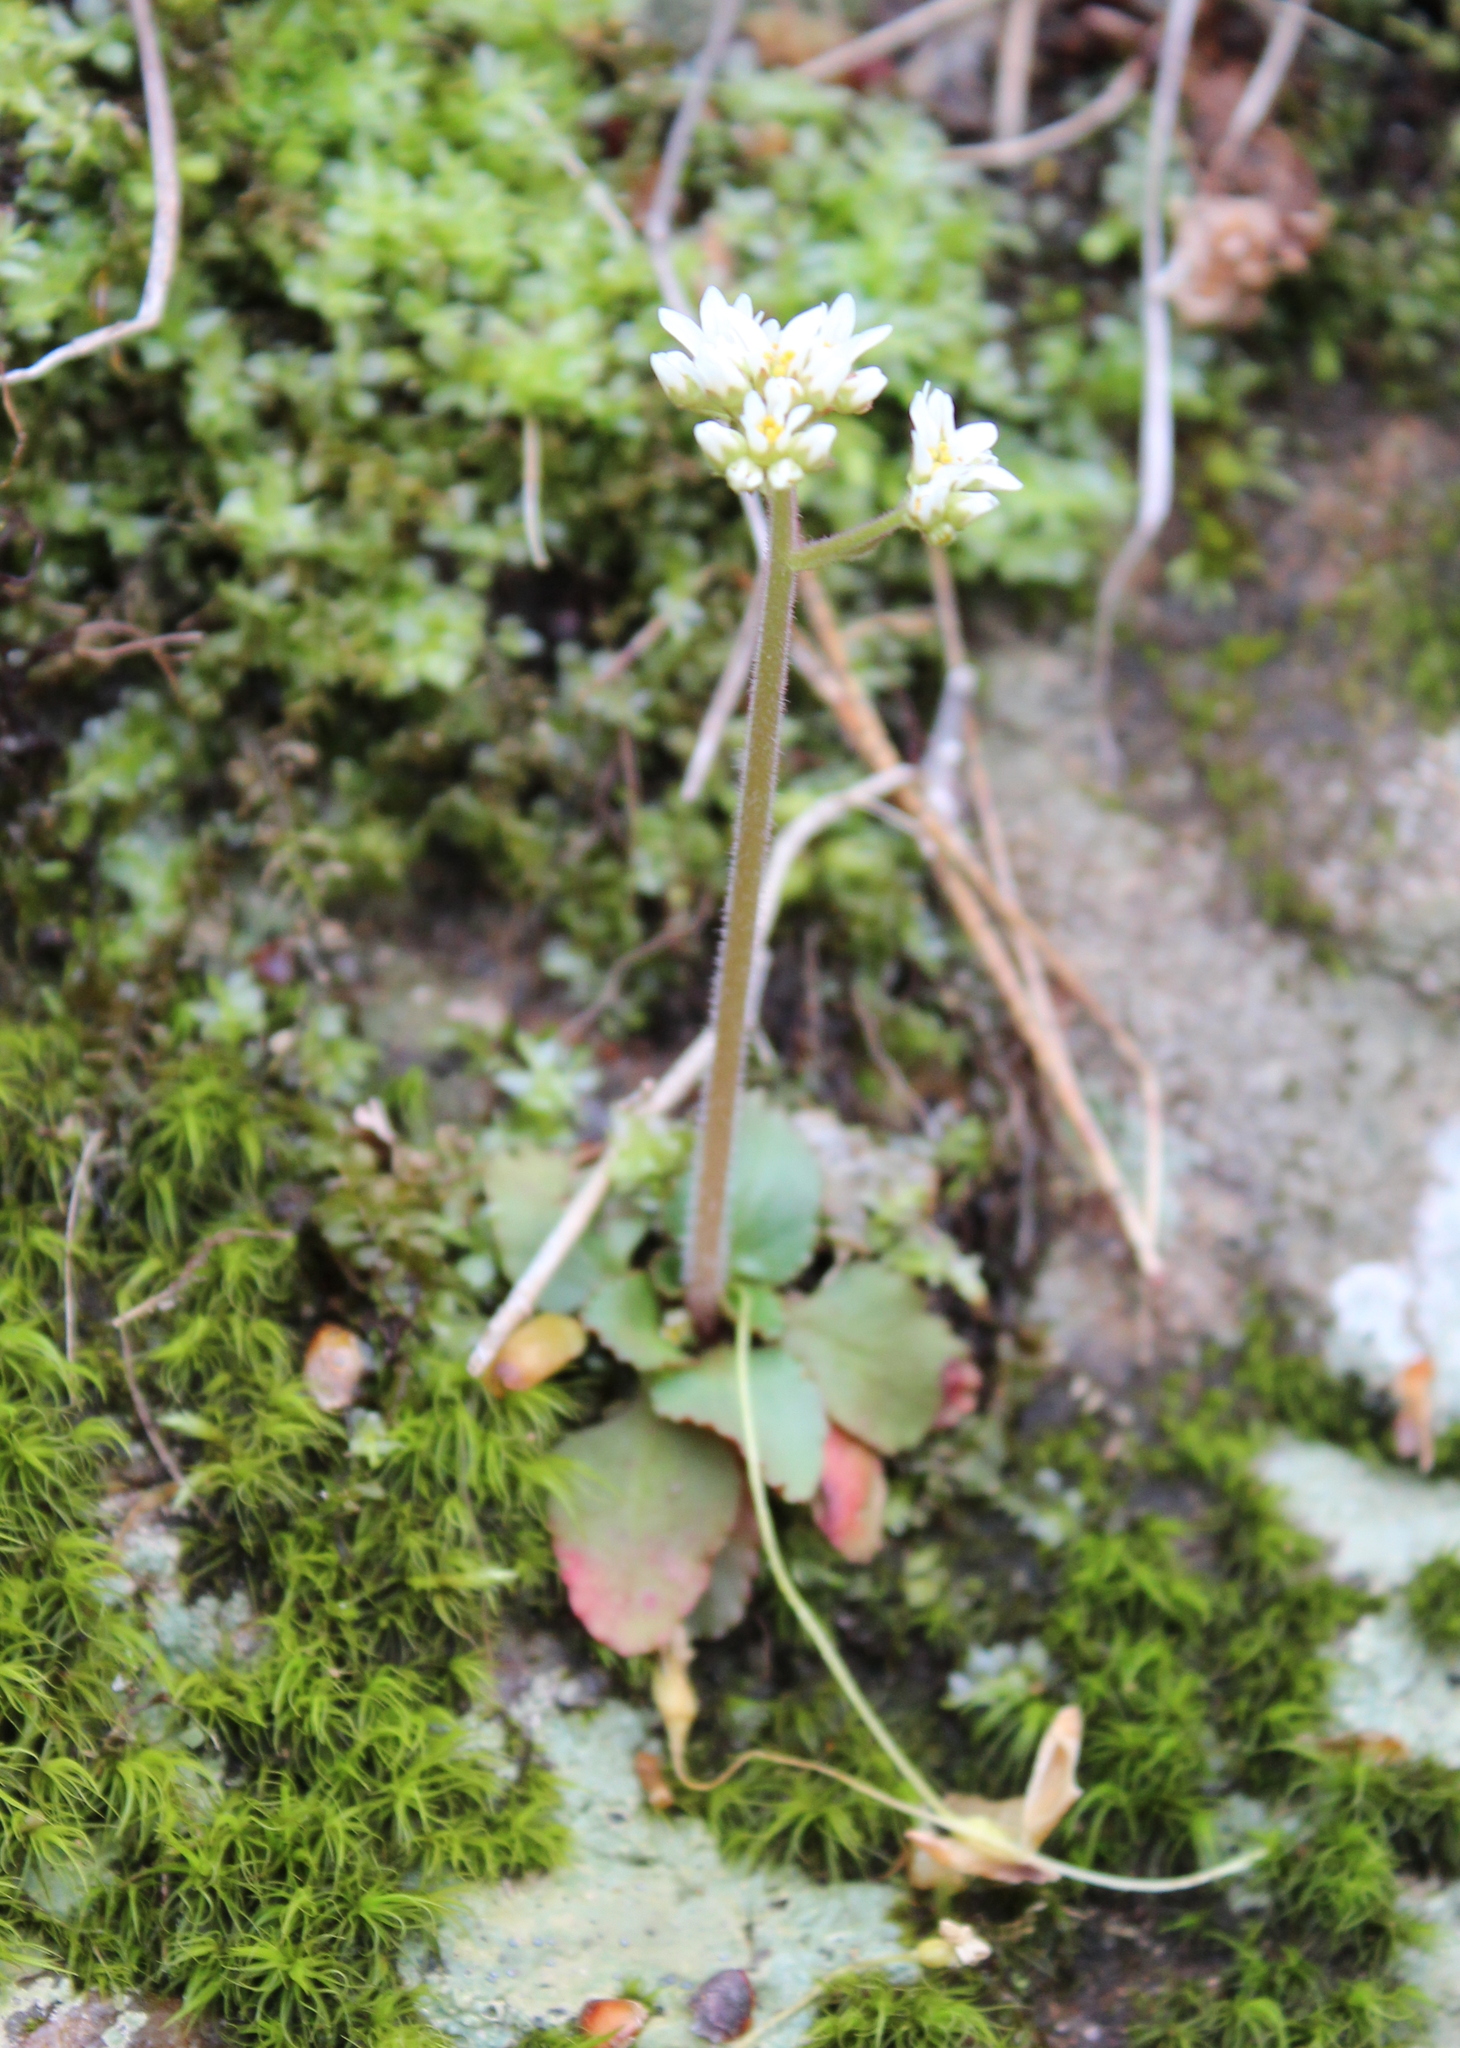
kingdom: Plantae
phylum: Tracheophyta
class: Magnoliopsida
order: Saxifragales
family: Saxifragaceae
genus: Micranthes
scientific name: Micranthes virginiensis
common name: Early saxifrage
